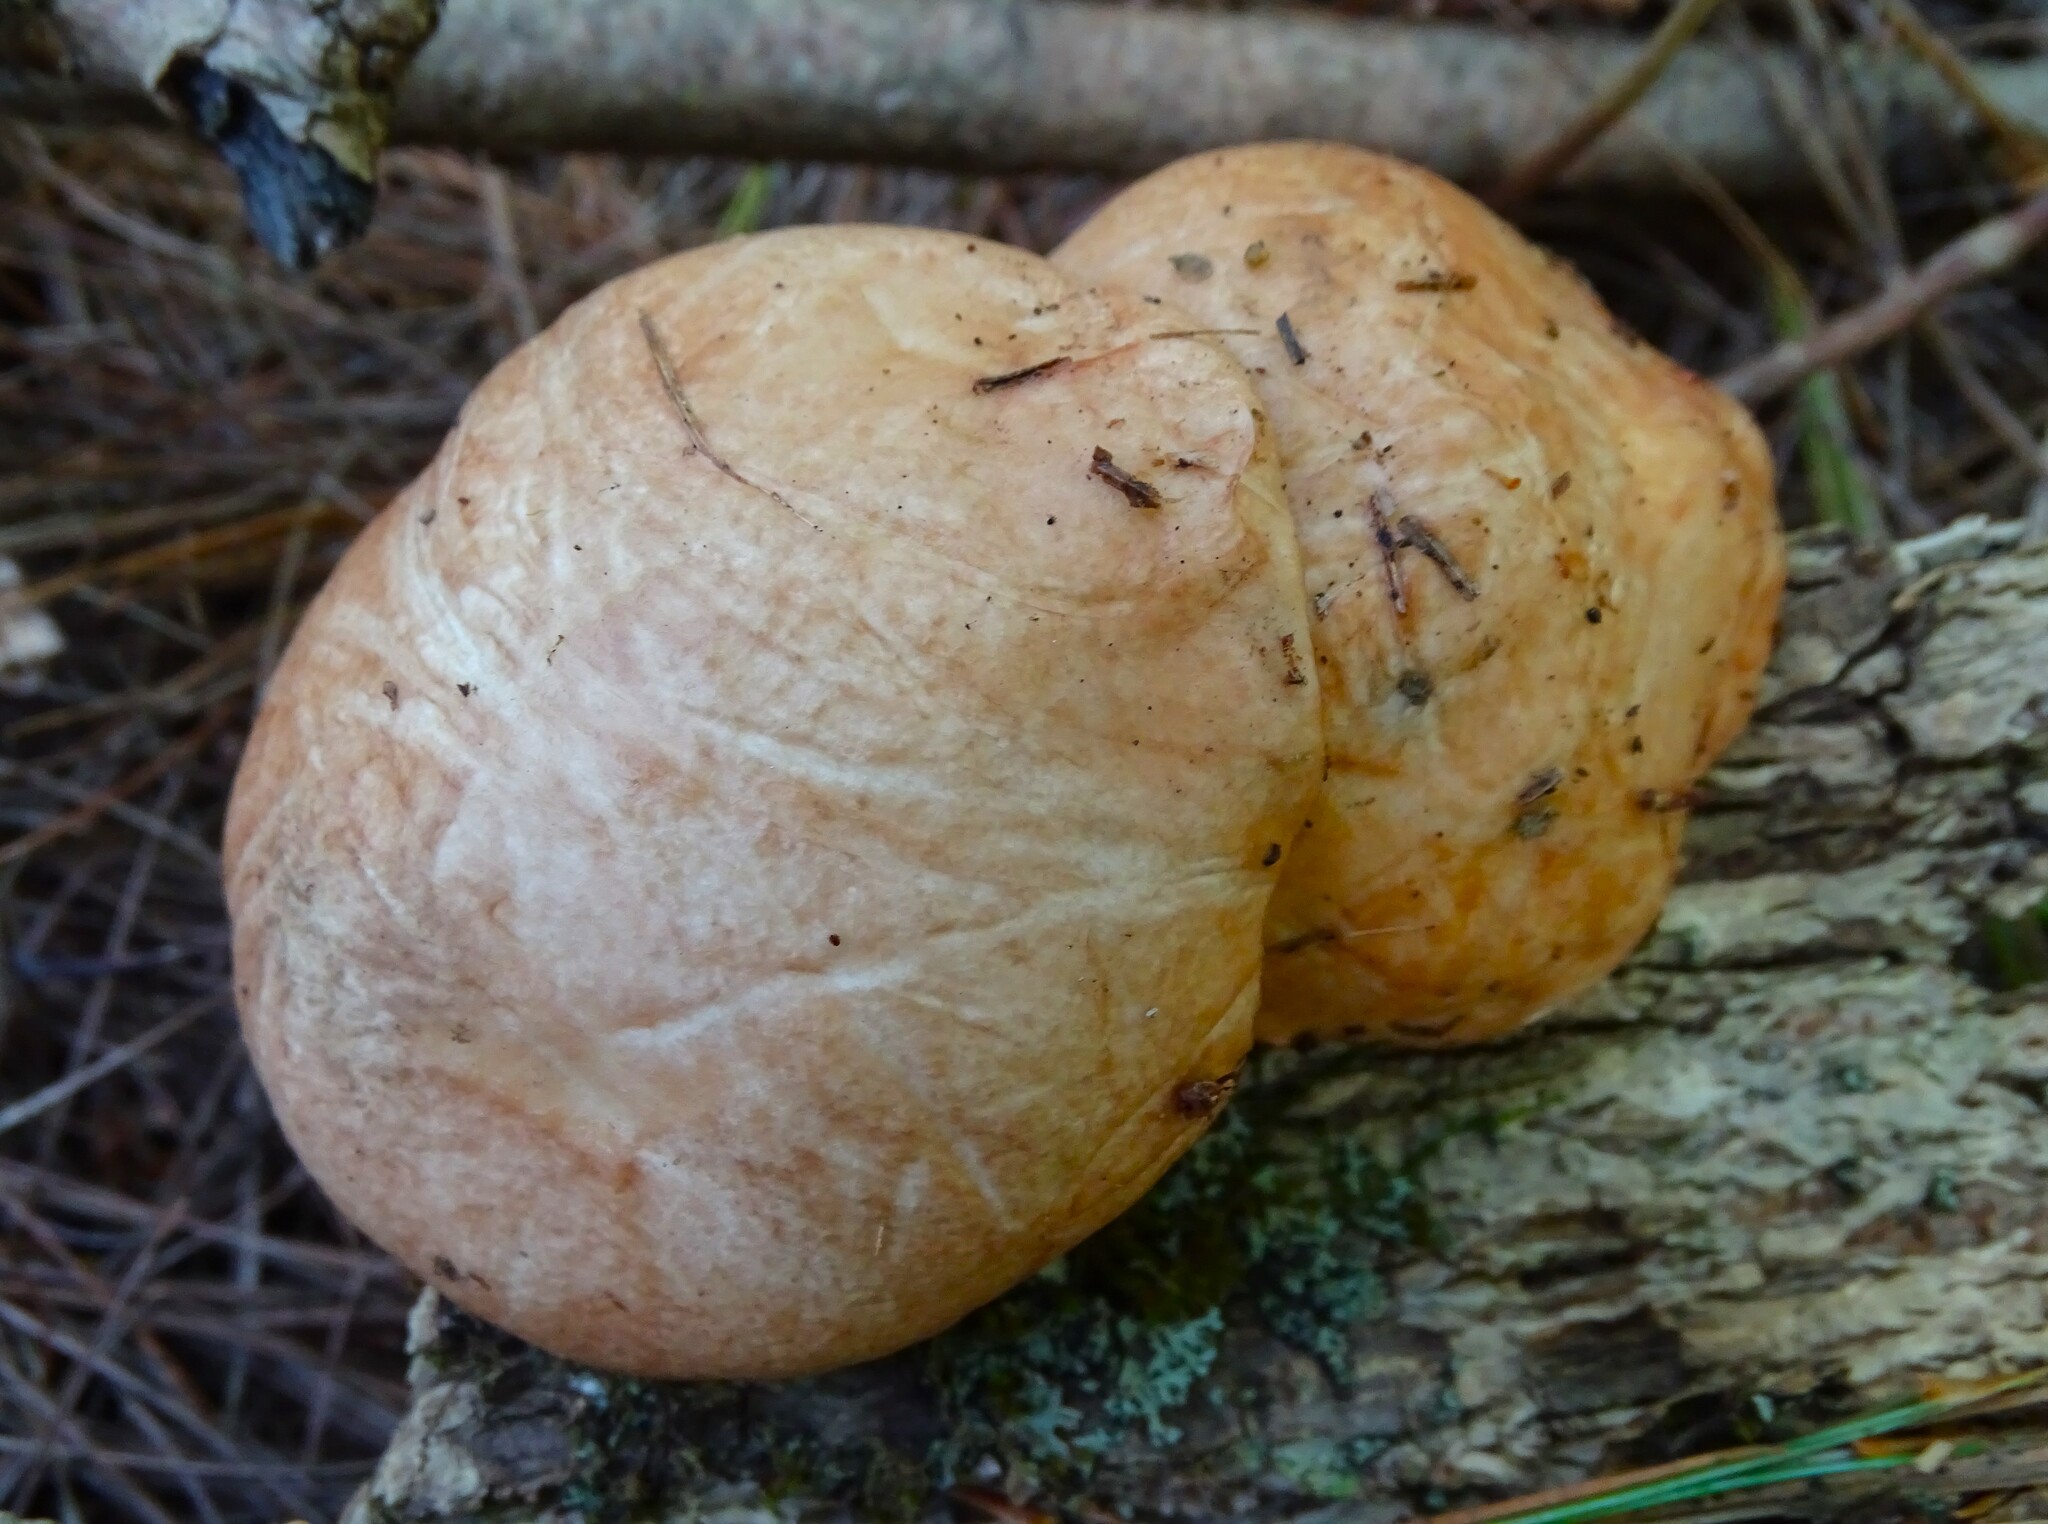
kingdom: Fungi
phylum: Basidiomycota
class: Agaricomycetes
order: Boletales
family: Suillaceae
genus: Fuscoboletinus
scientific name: Fuscoboletinus weaverae
